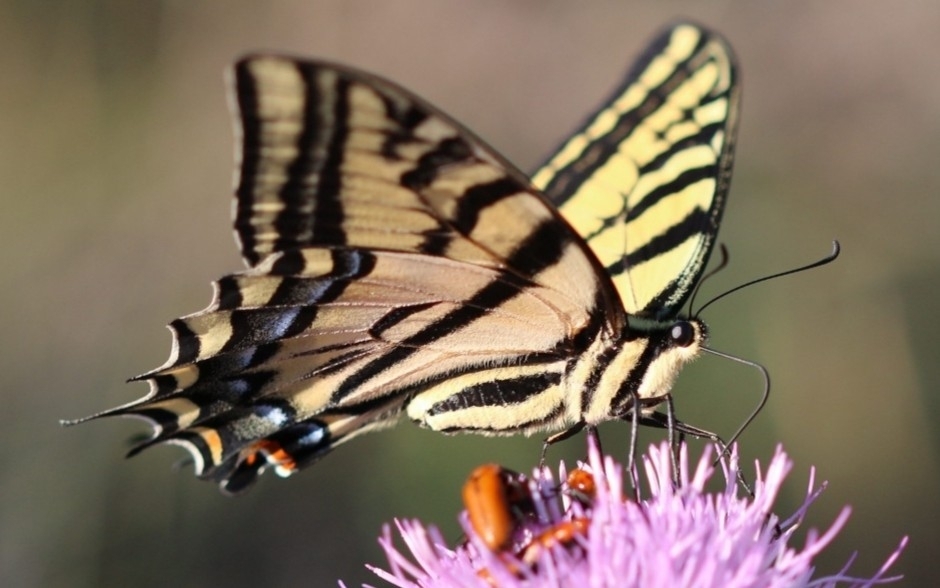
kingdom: Animalia
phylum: Arthropoda
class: Insecta
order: Lepidoptera
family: Papilionidae
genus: Papilio
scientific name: Papilio multicaudata
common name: Two-tailed tiger swallowtail
